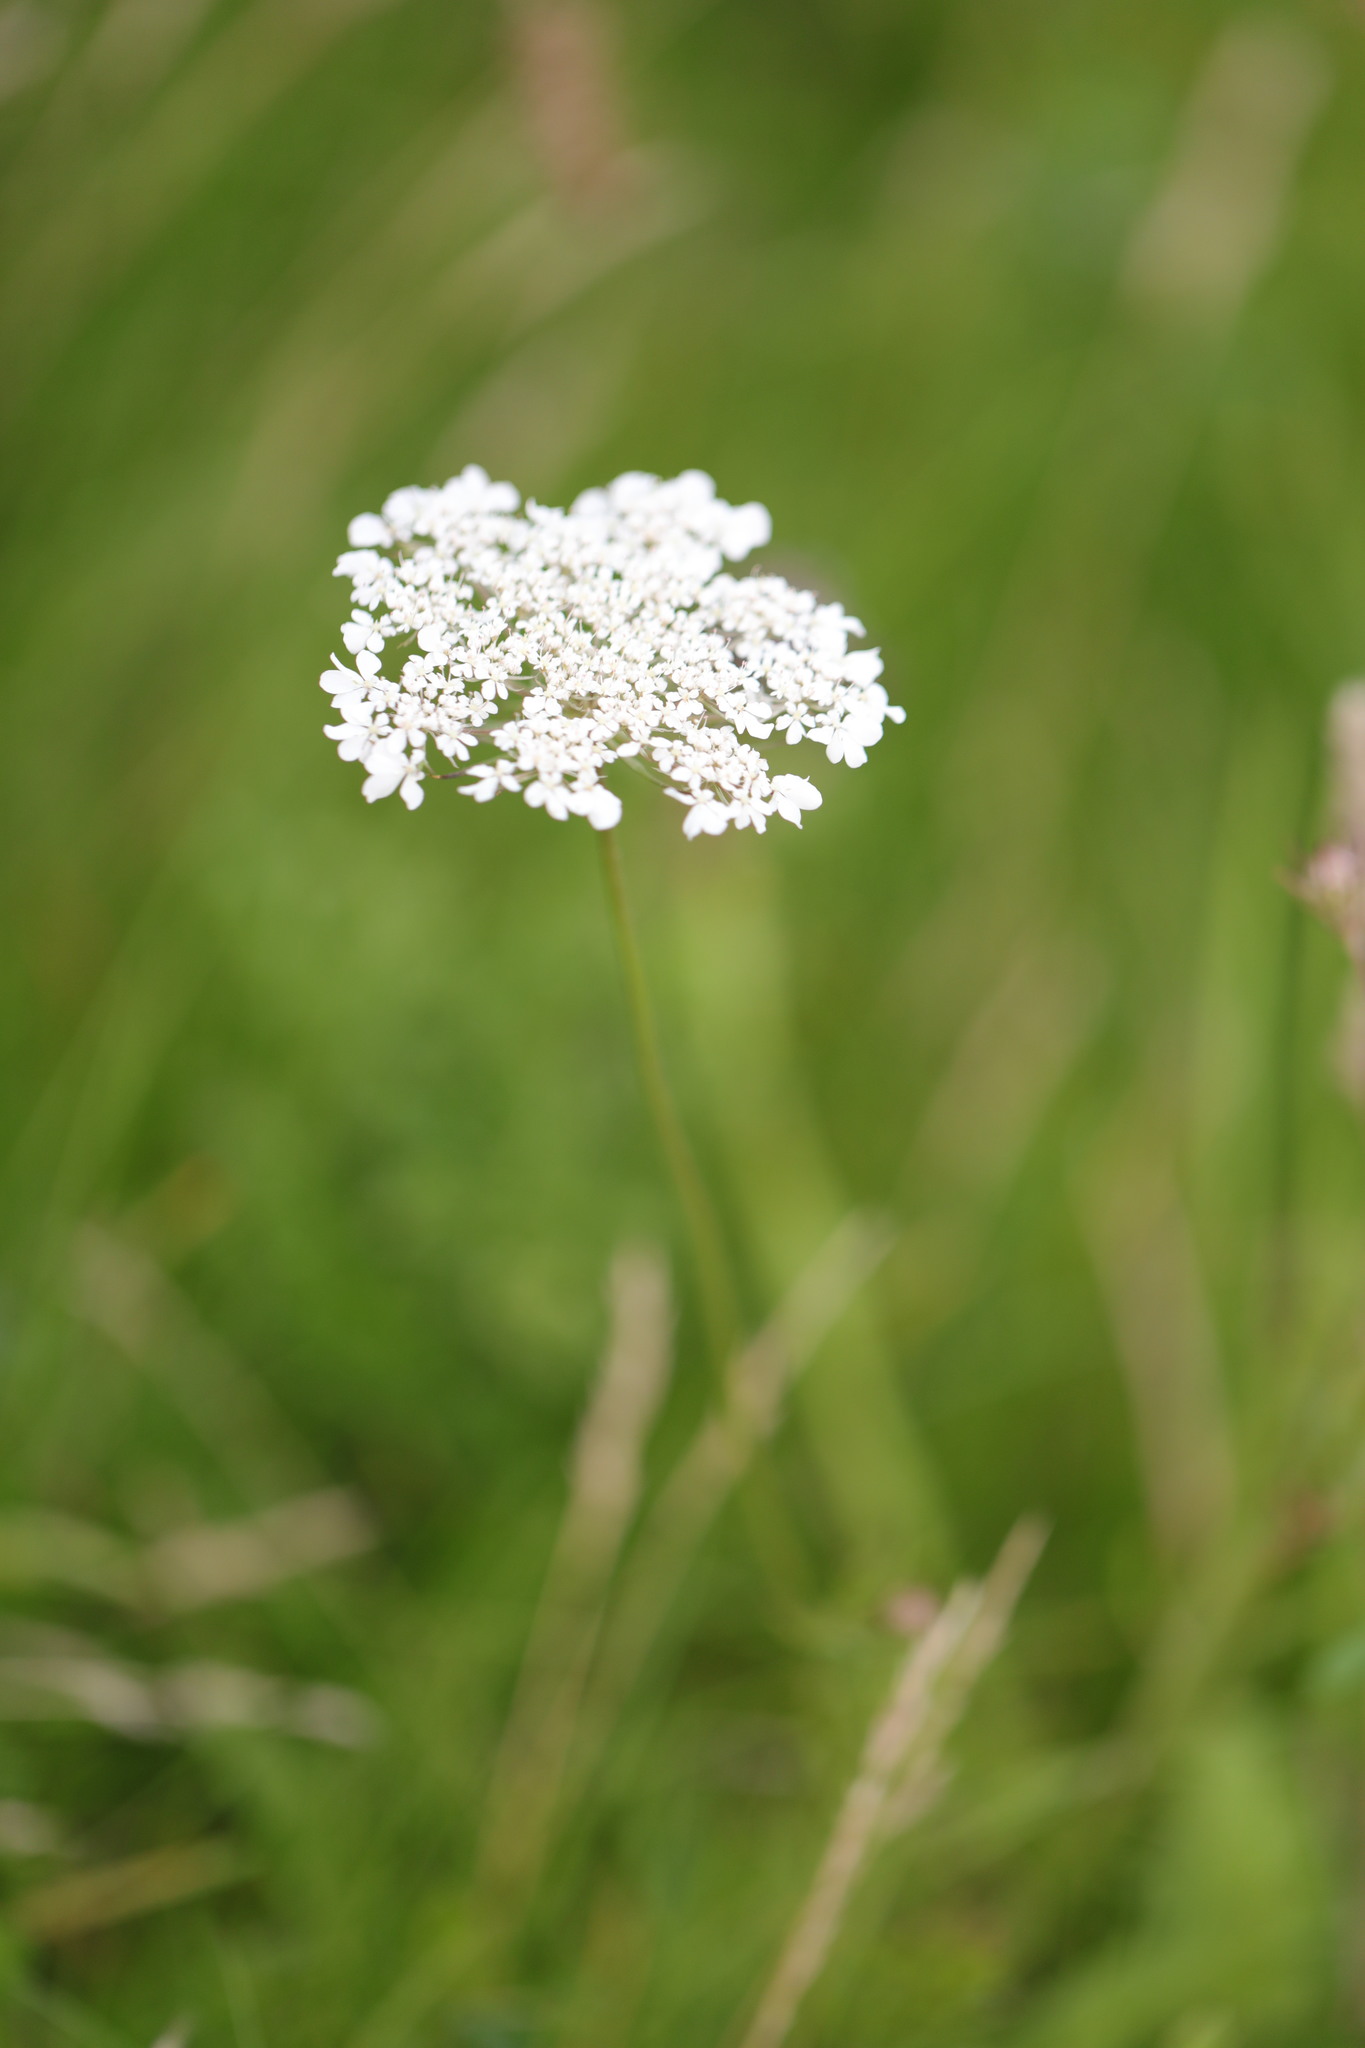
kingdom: Plantae
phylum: Tracheophyta
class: Magnoliopsida
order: Apiales
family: Apiaceae
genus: Daucus
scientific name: Daucus carota
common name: Wild carrot
